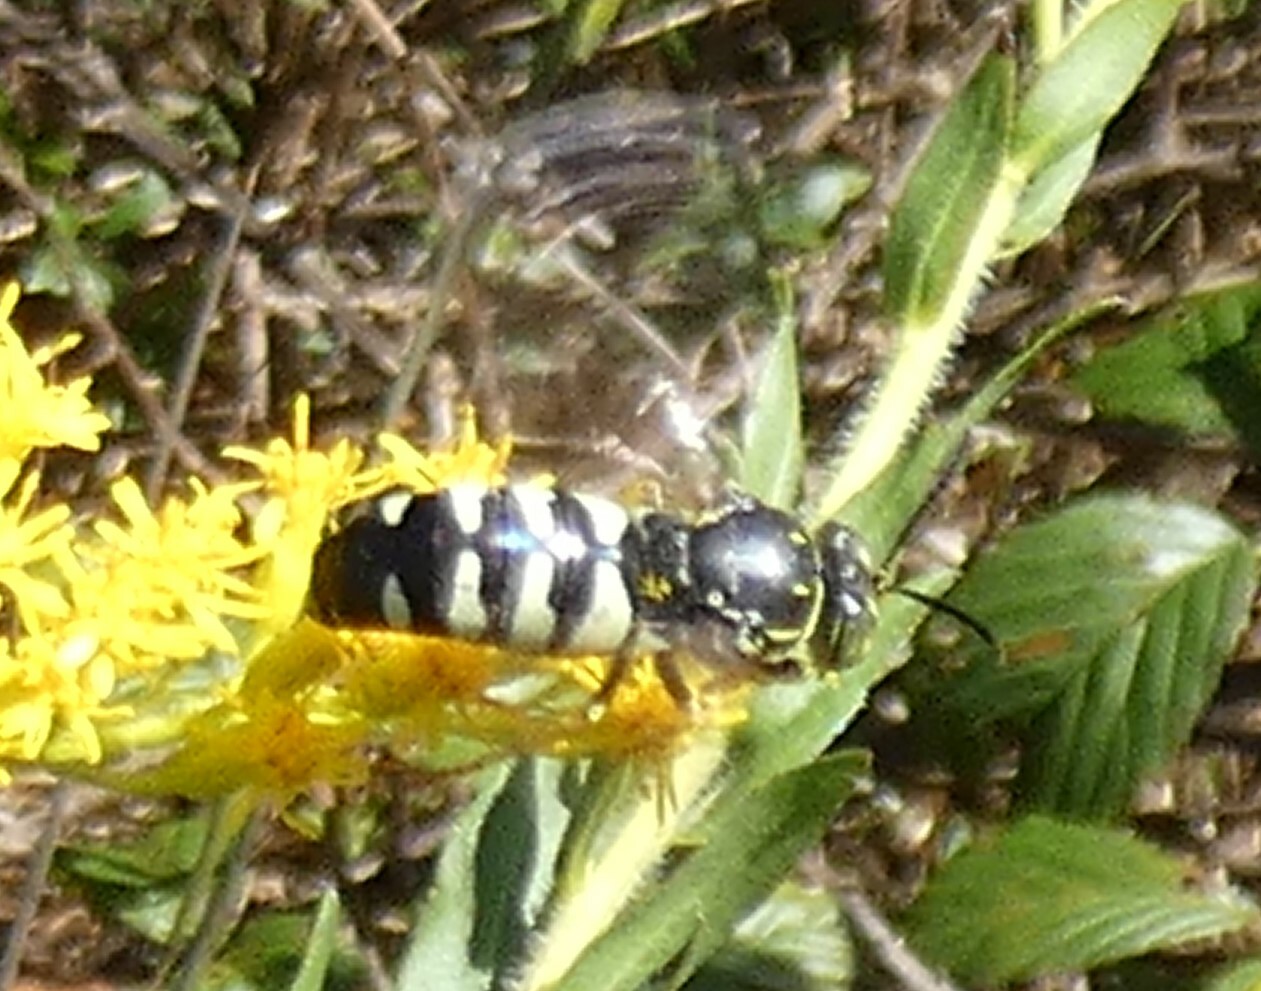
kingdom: Animalia
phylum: Arthropoda
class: Insecta
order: Hymenoptera
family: Crabronidae
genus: Bicyrtes
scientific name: Bicyrtes quadrifasciatus
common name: Four-banded stink bug hunter wasp
